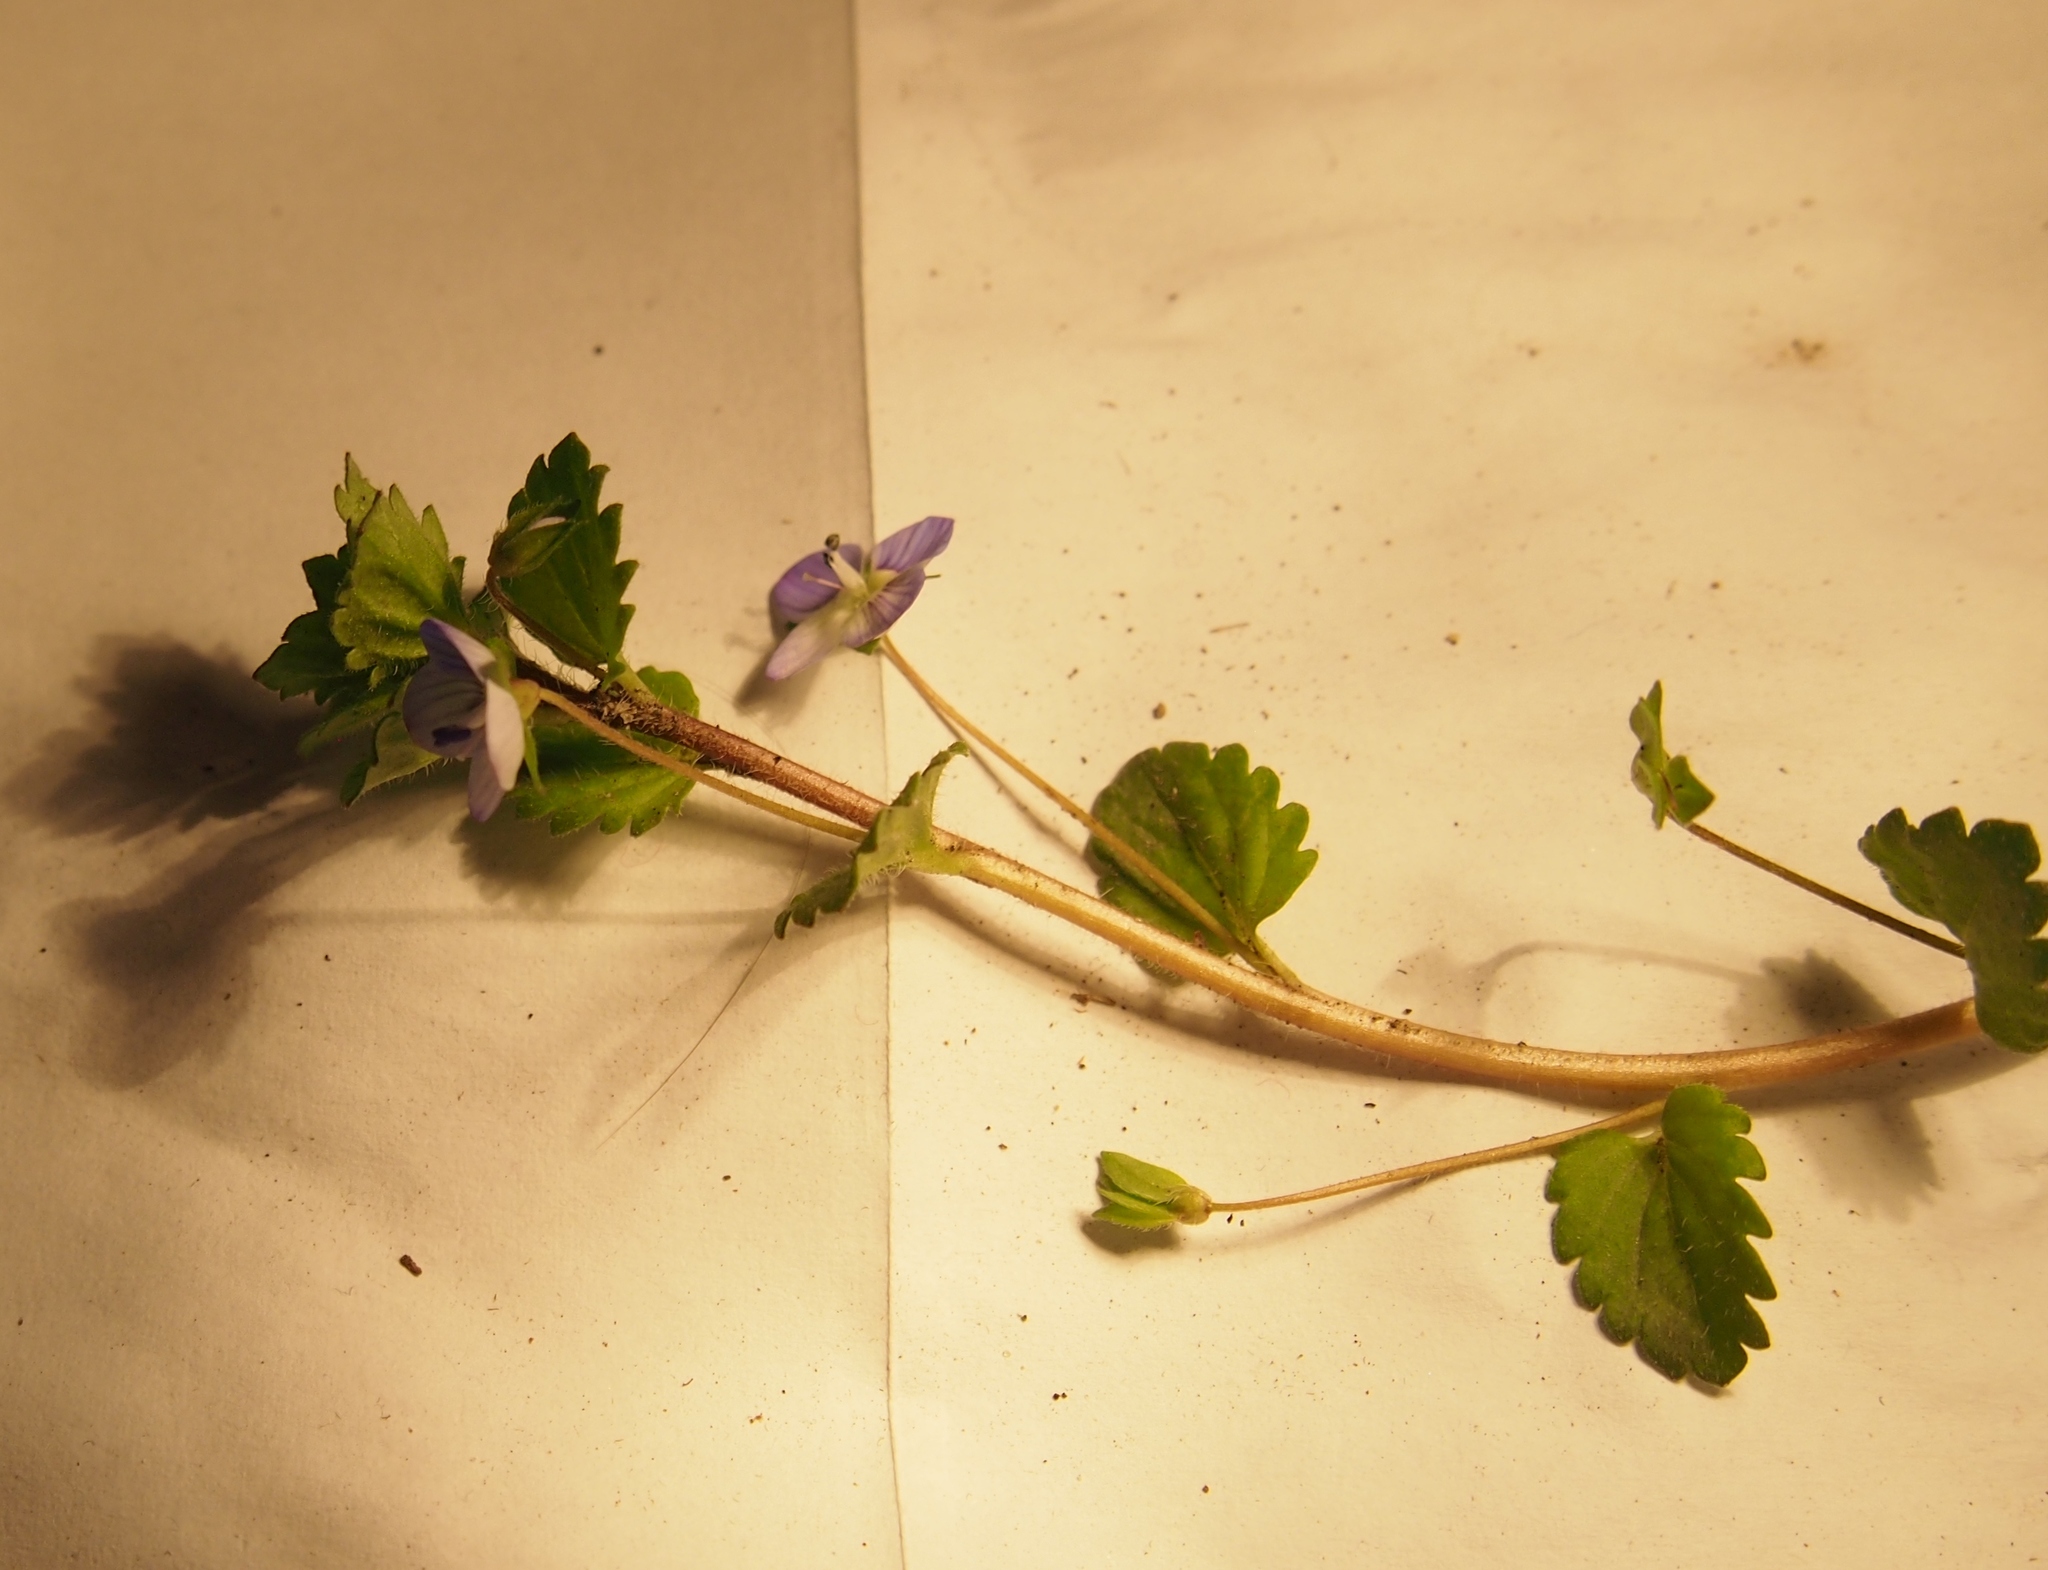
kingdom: Plantae
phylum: Tracheophyta
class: Magnoliopsida
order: Lamiales
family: Plantaginaceae
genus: Veronica
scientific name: Veronica persica
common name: Common field-speedwell
